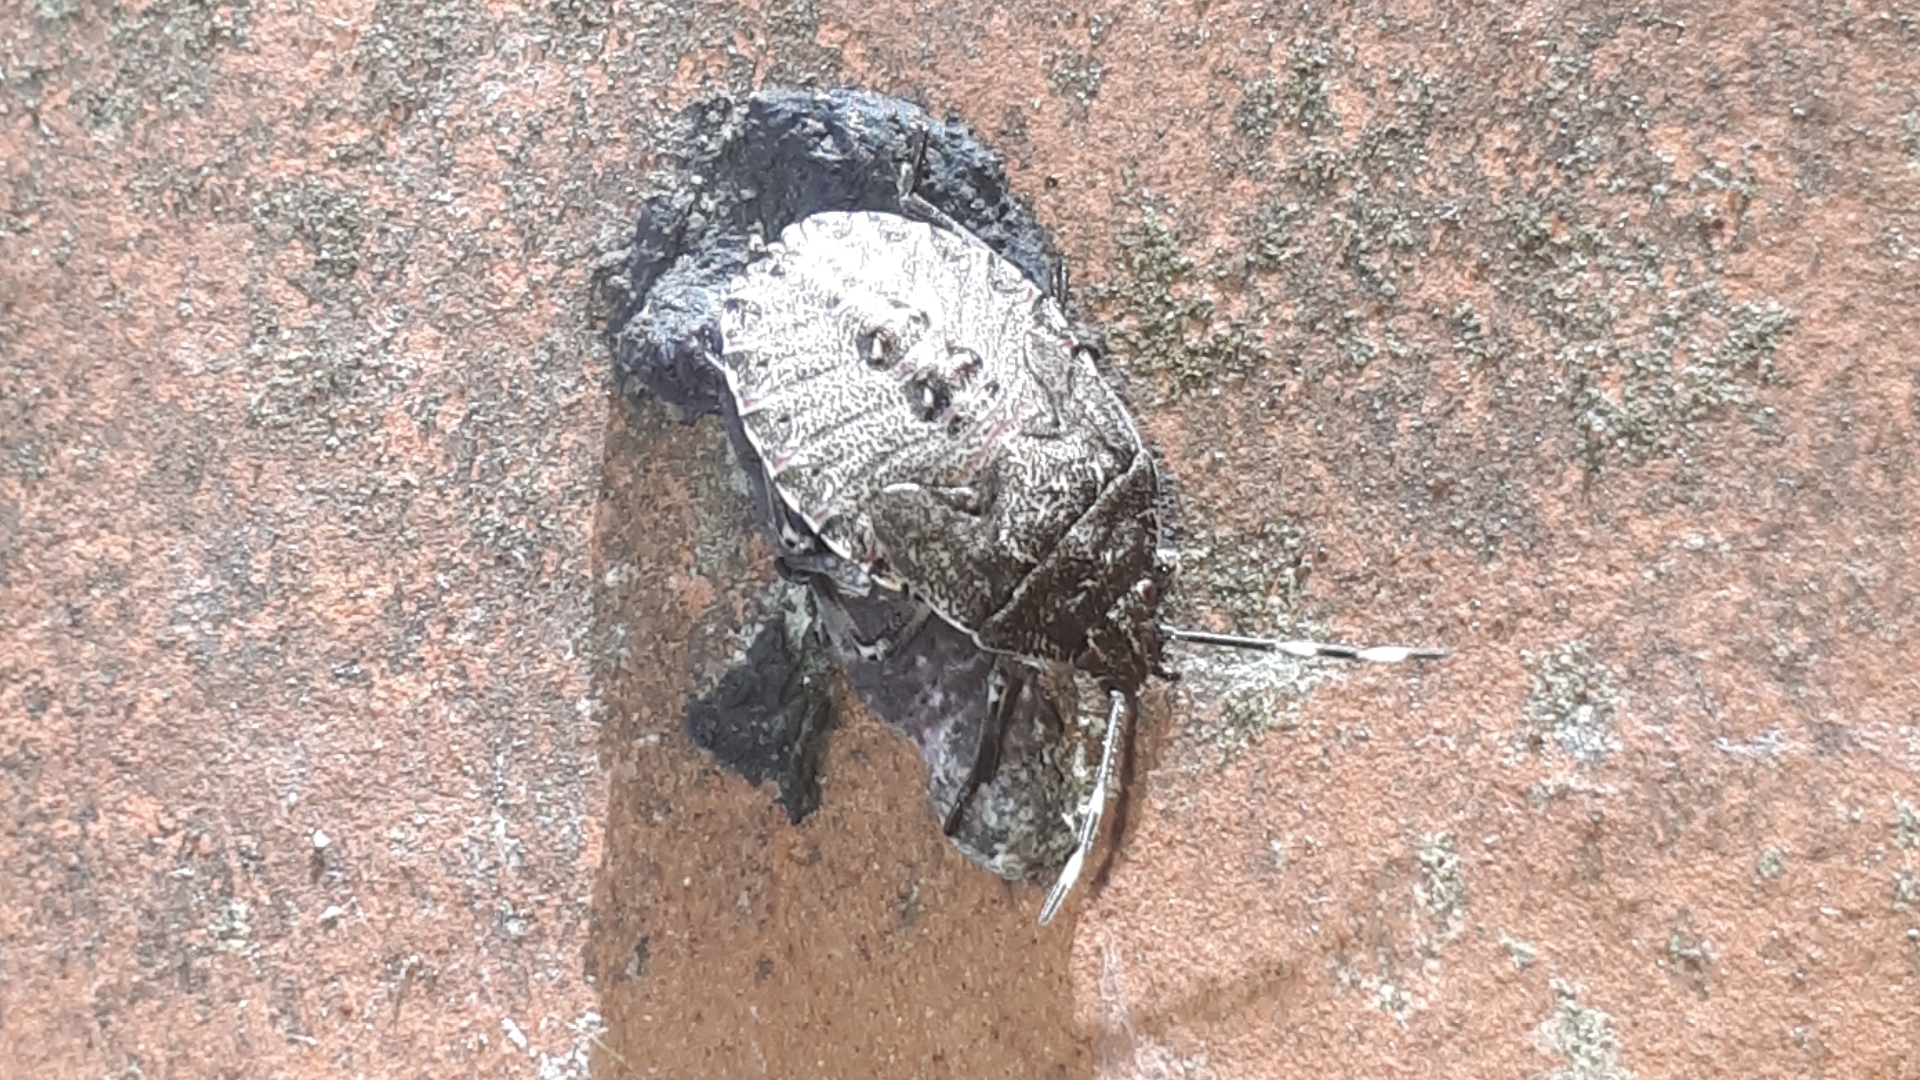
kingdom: Animalia
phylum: Arthropoda
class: Insecta
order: Hemiptera
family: Pentatomidae
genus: Rhaphigaster
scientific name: Rhaphigaster nebulosa
